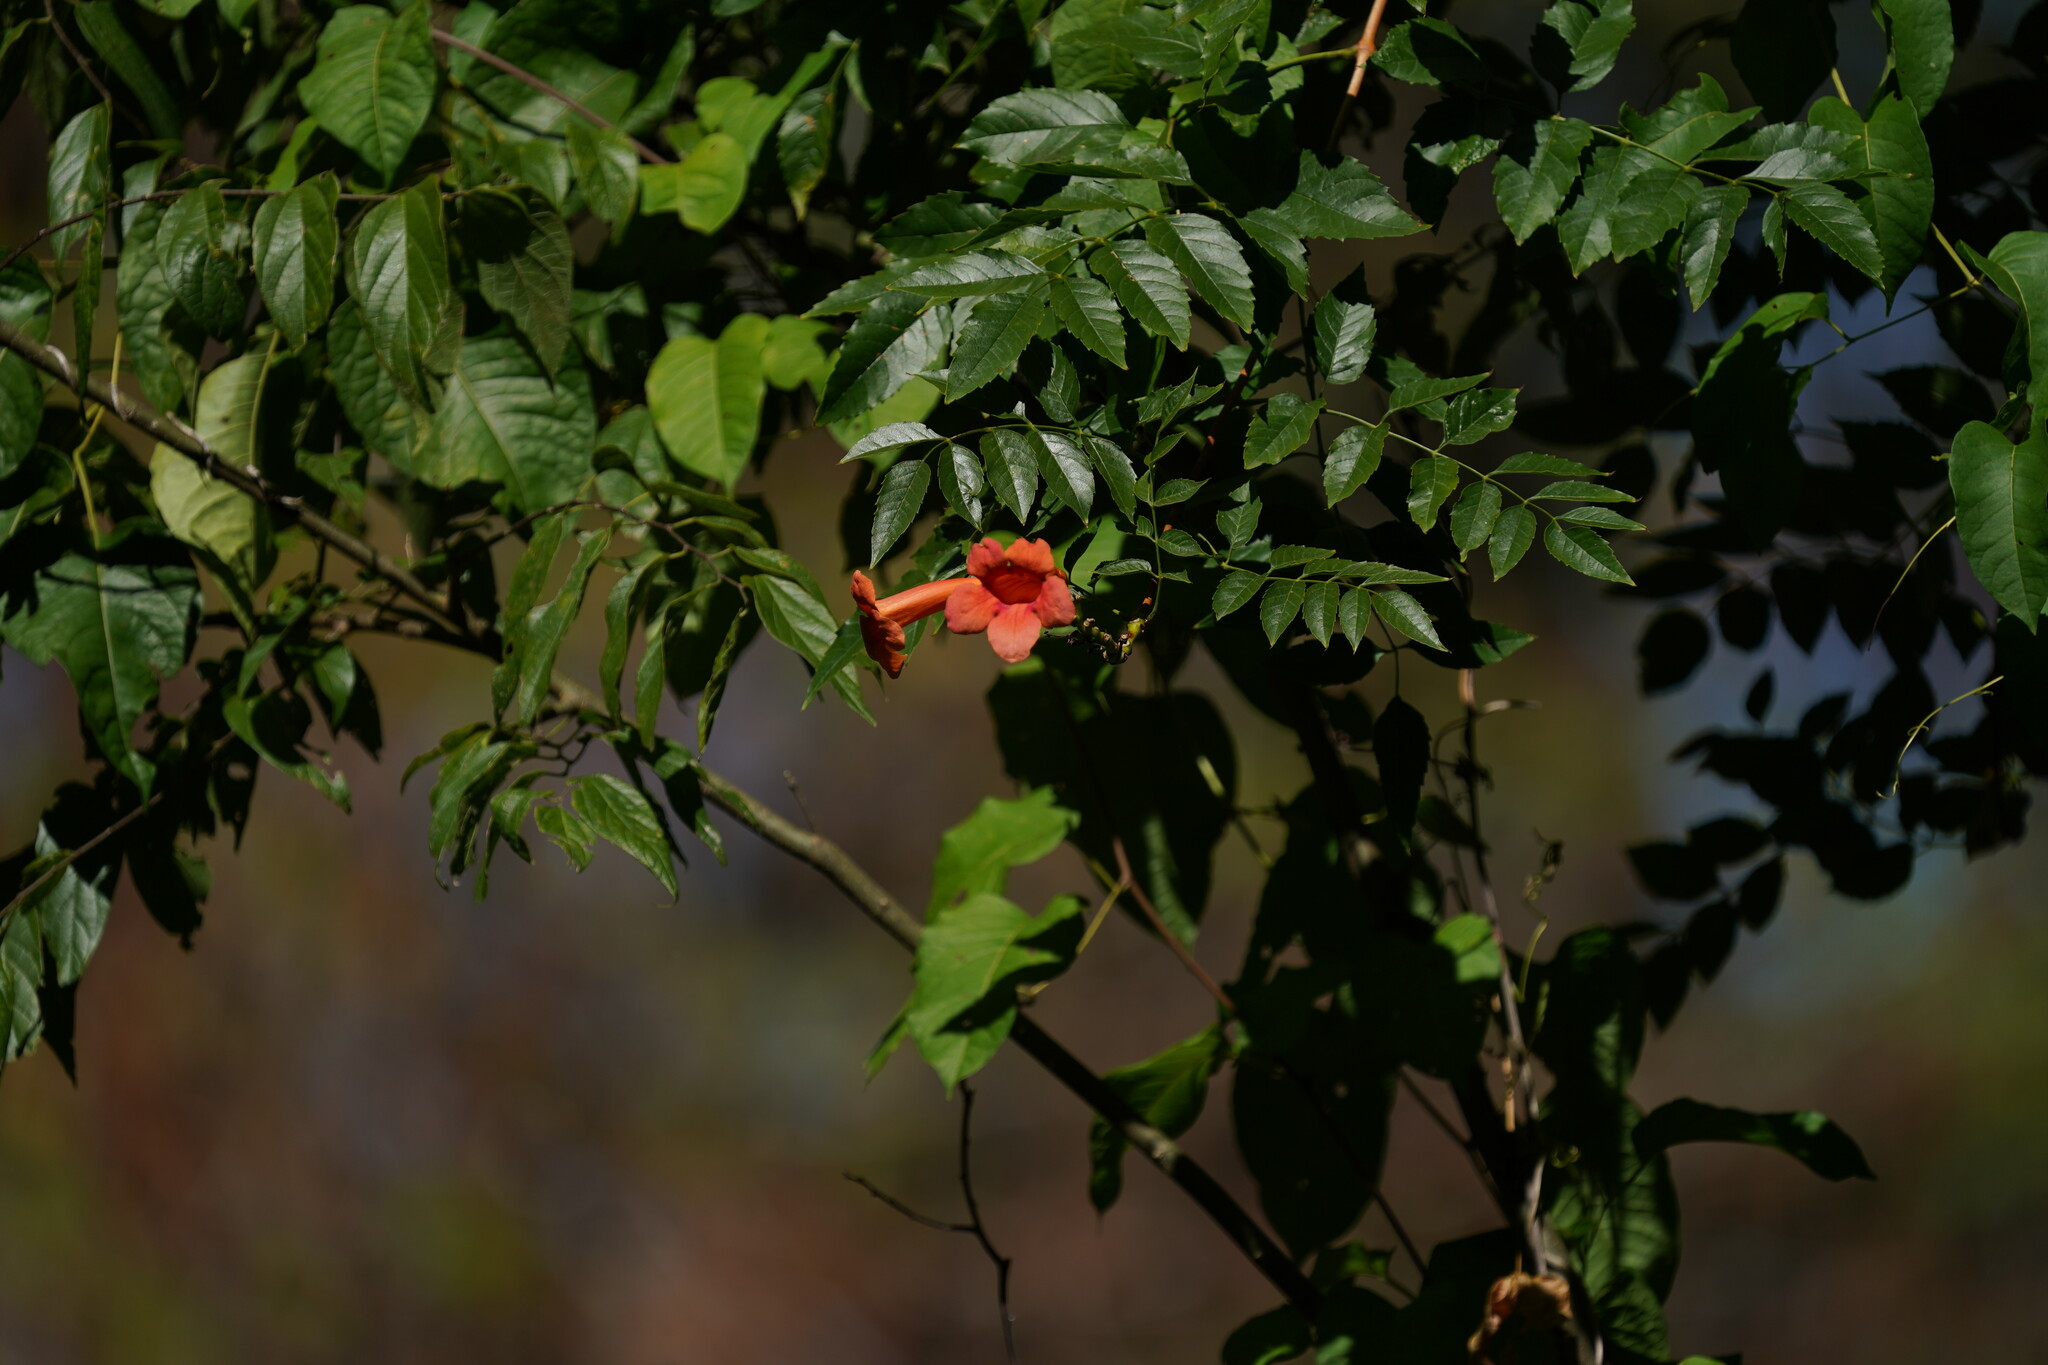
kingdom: Plantae
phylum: Tracheophyta
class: Magnoliopsida
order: Lamiales
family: Bignoniaceae
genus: Campsis
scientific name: Campsis radicans
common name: Trumpet-creeper
